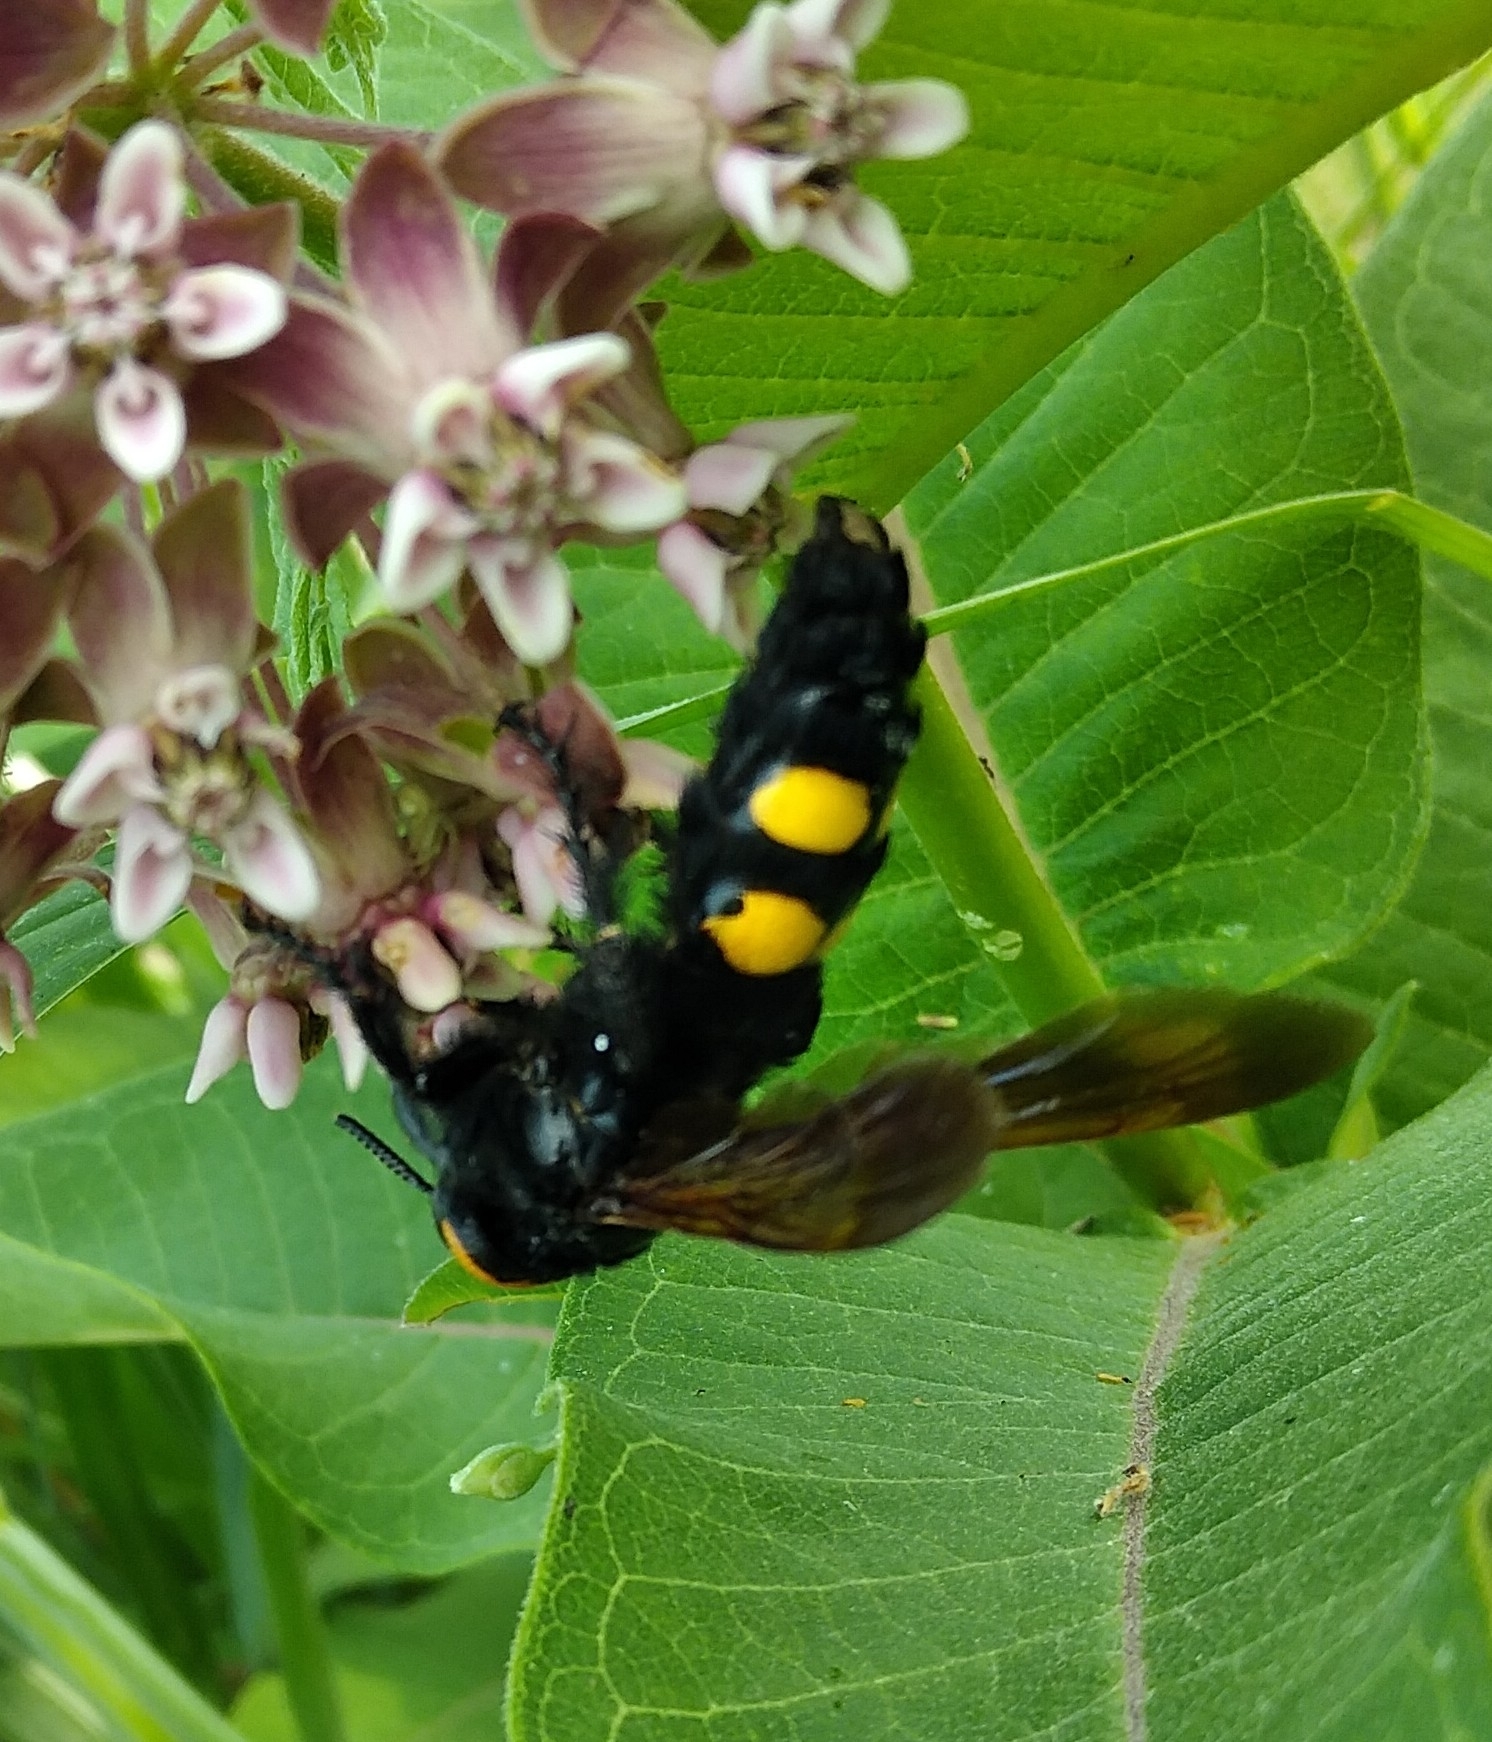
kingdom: Animalia
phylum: Arthropoda
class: Insecta
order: Hymenoptera
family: Scoliidae
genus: Megascolia
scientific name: Megascolia maculata
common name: Mammoth wasp
